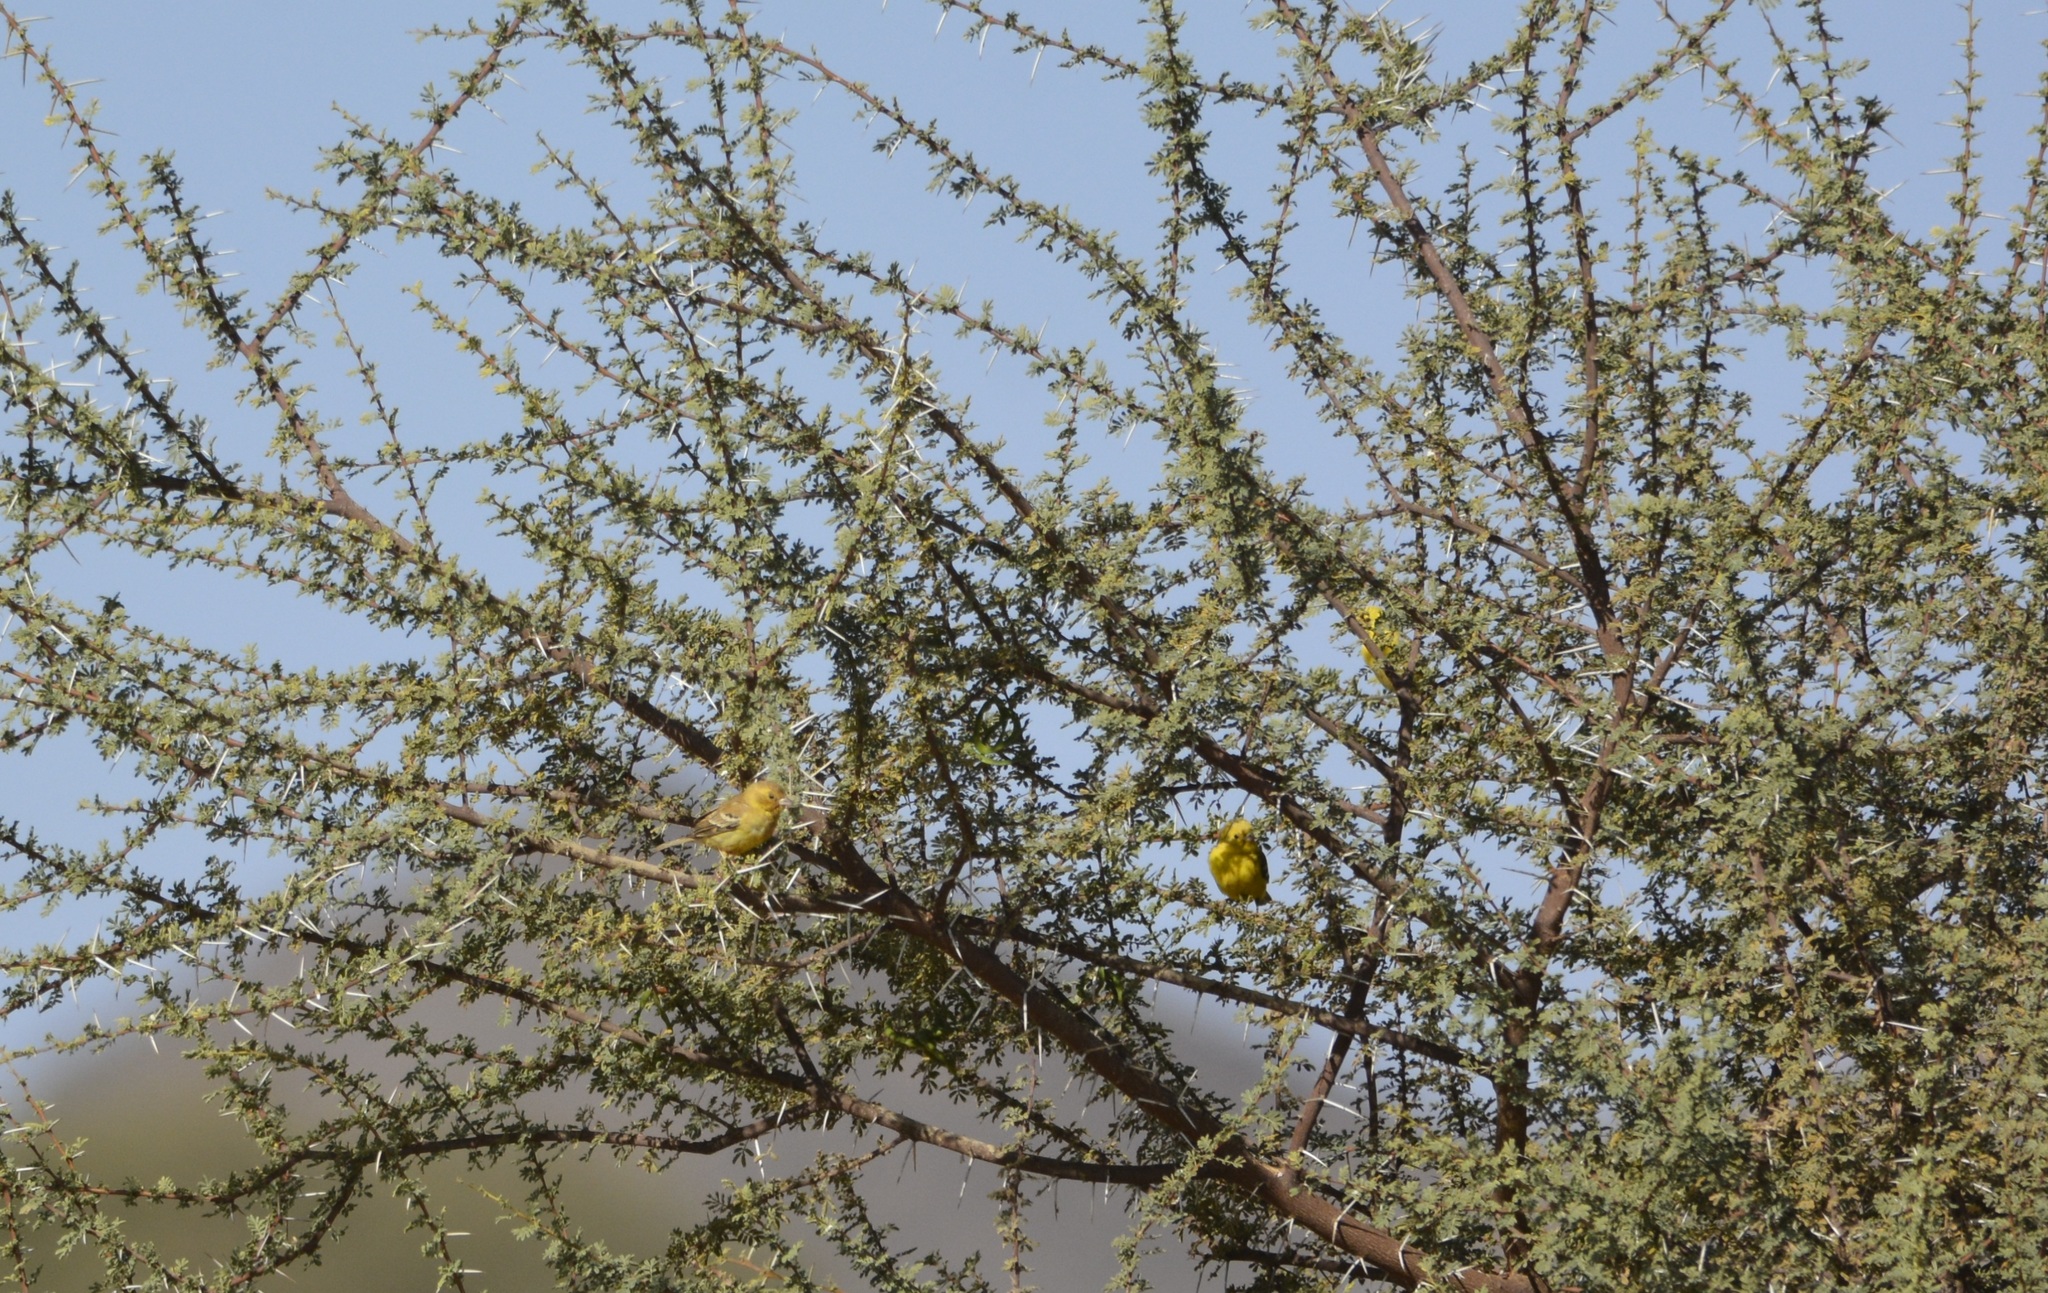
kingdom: Animalia
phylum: Chordata
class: Aves
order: Passeriformes
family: Passeridae
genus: Passer
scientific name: Passer luteus
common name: Sudan golden sparrow
